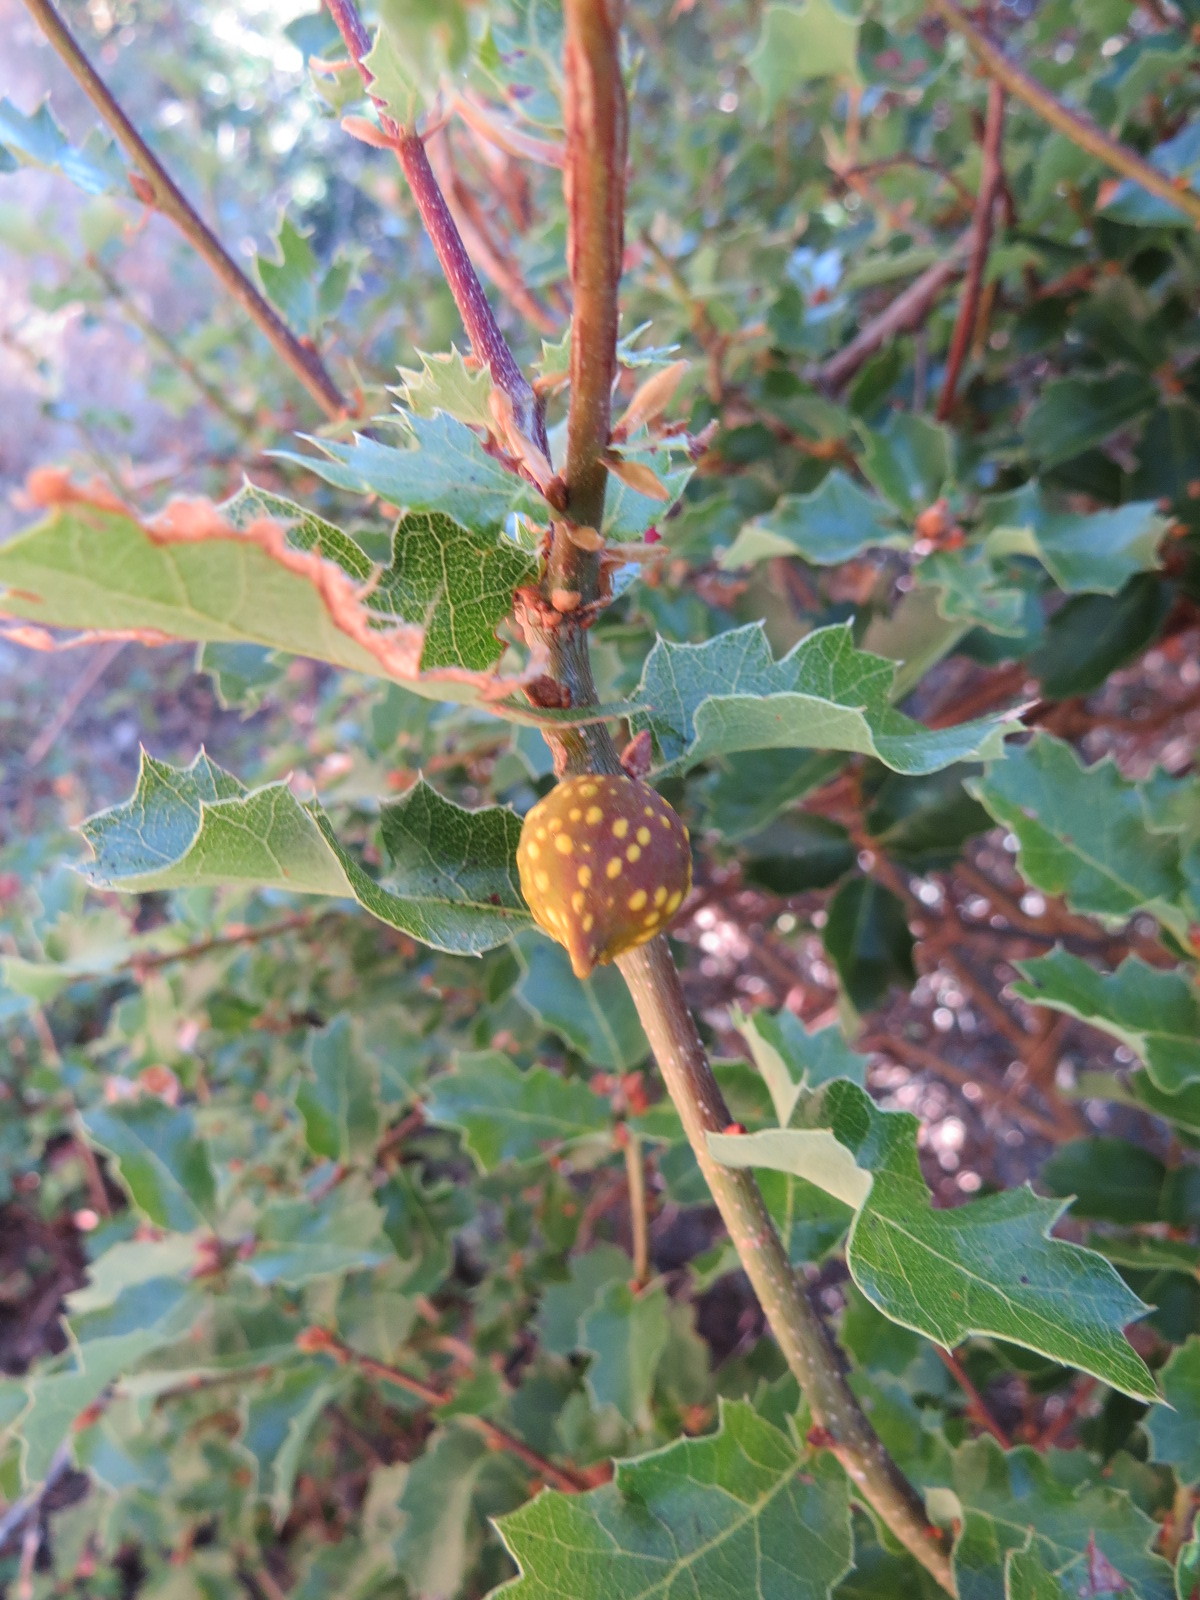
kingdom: Animalia
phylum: Arthropoda
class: Insecta
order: Hymenoptera
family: Cynipidae
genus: Burnettweldia
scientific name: Burnettweldia
